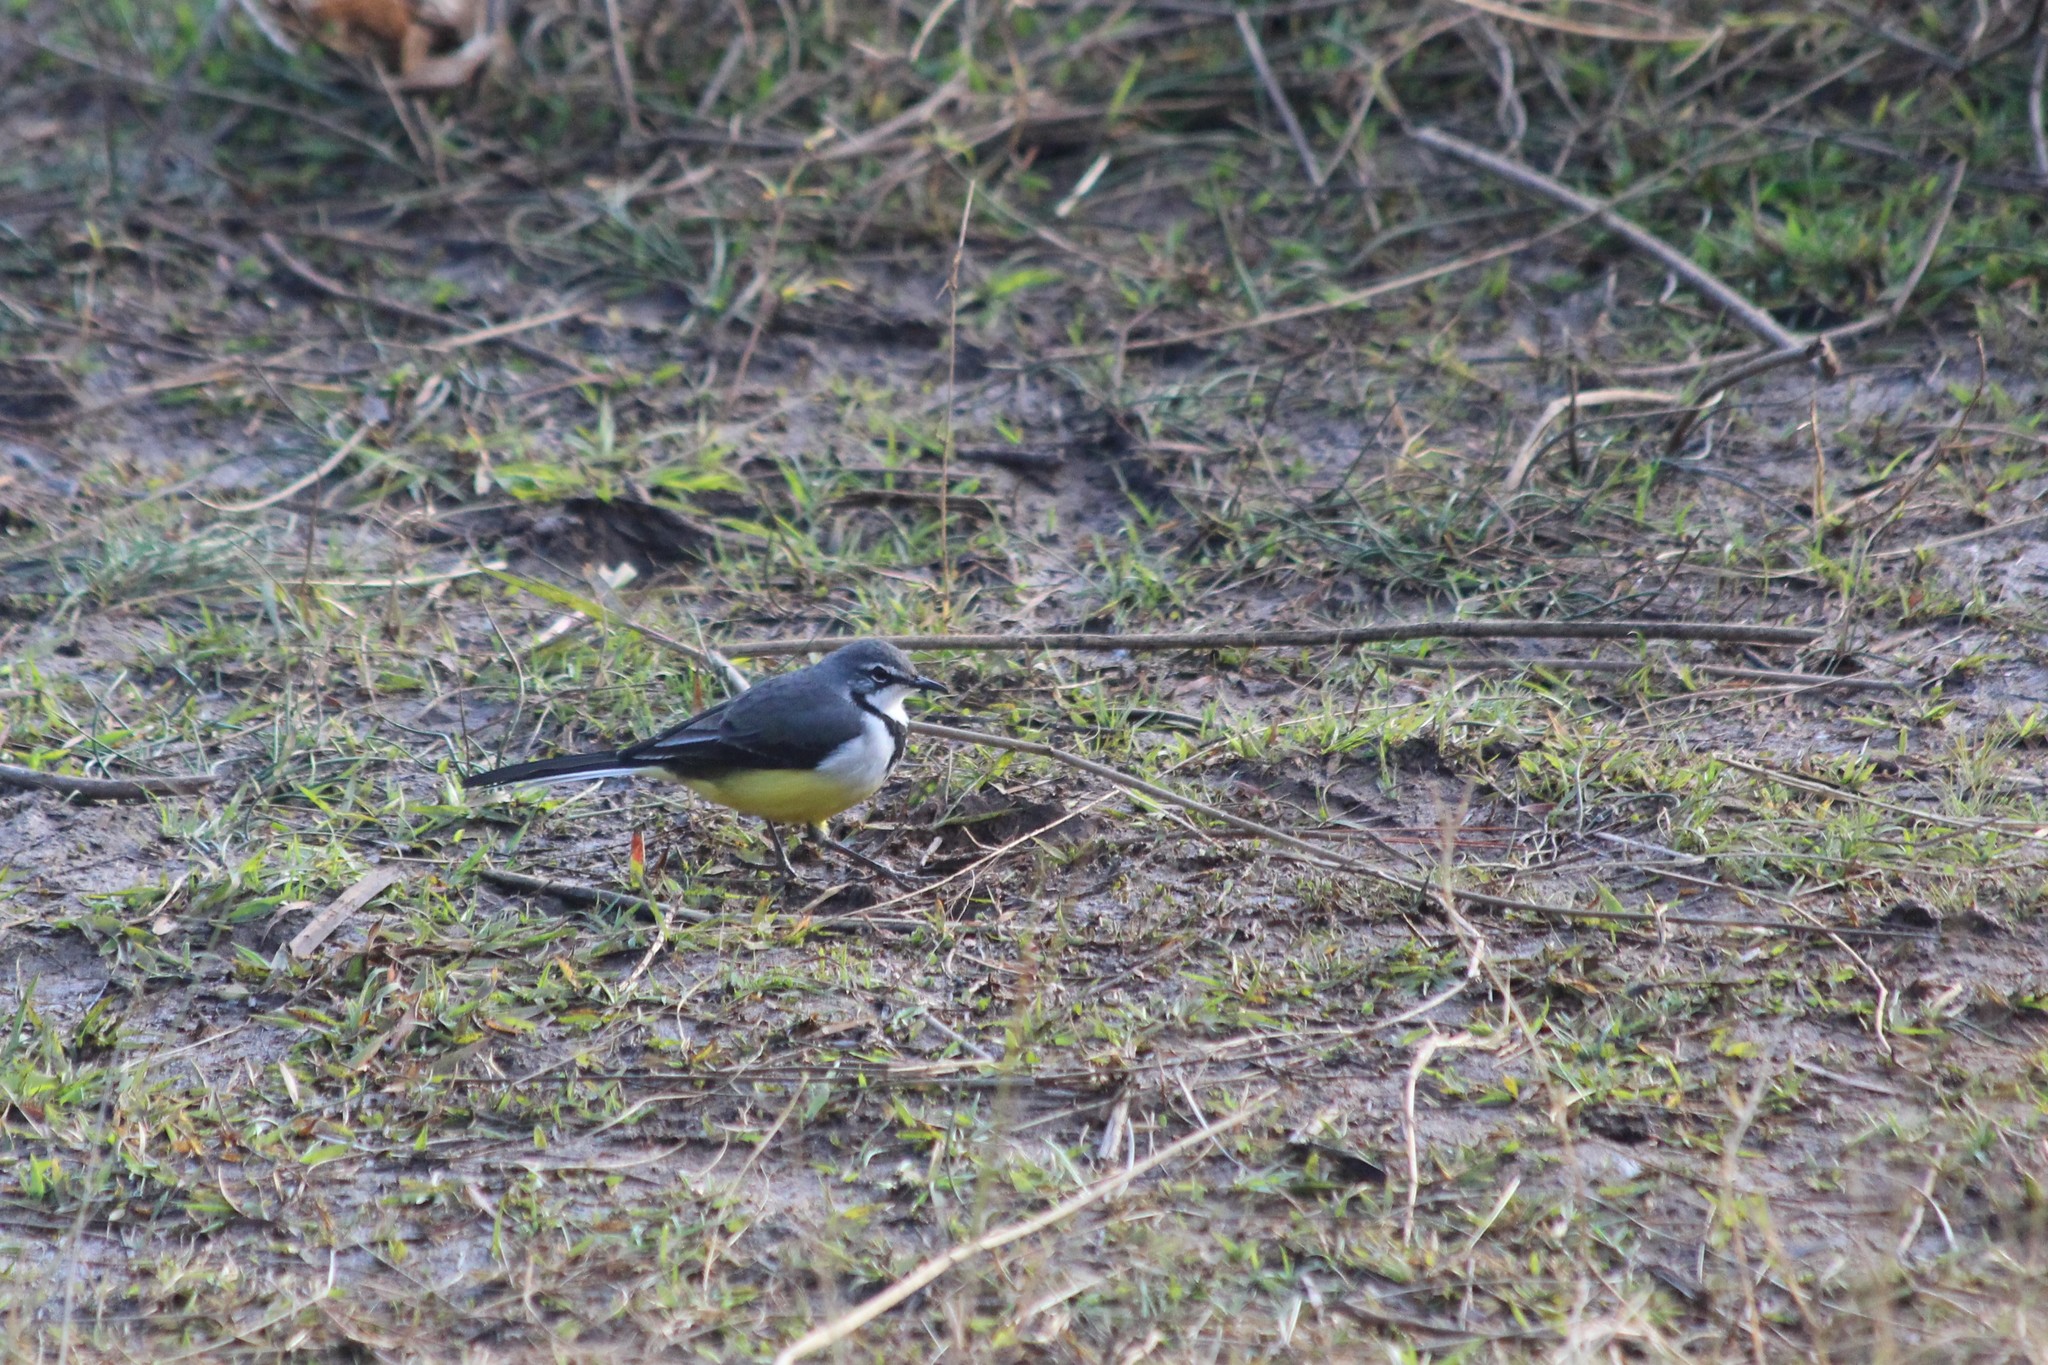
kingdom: Animalia
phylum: Chordata
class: Aves
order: Passeriformes
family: Motacillidae
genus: Motacilla
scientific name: Motacilla flaviventris
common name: Madagascar wagtail
